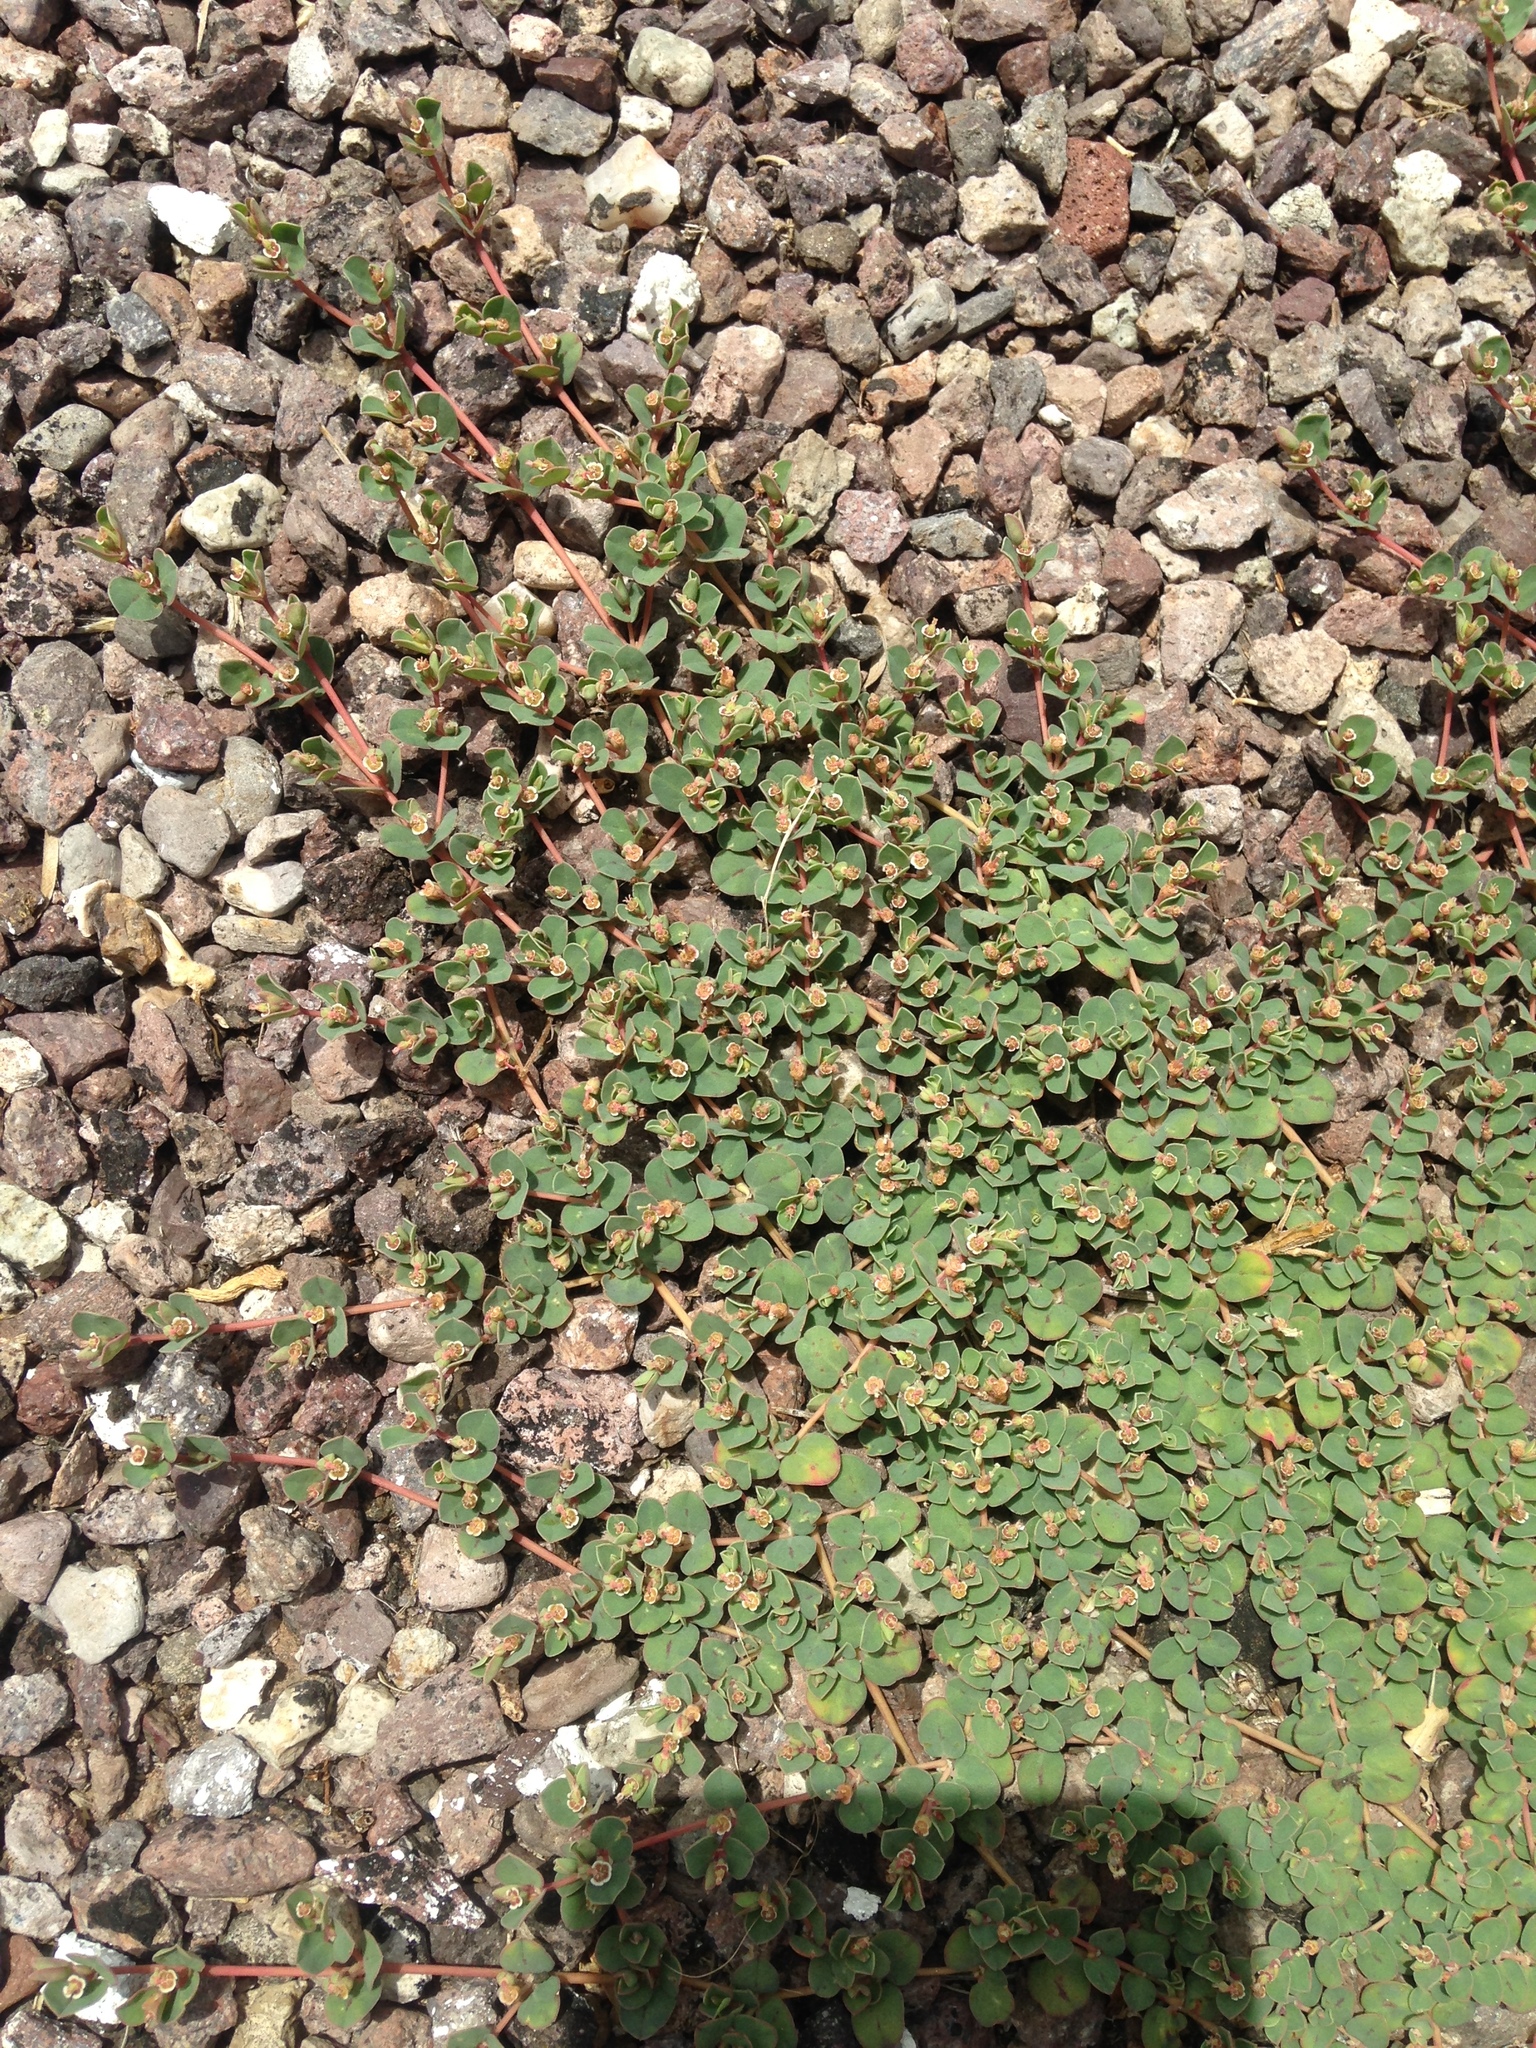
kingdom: Plantae
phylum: Tracheophyta
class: Magnoliopsida
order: Malpighiales
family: Euphorbiaceae
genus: Euphorbia
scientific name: Euphorbia albomarginata
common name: Whitemargin sandmat
